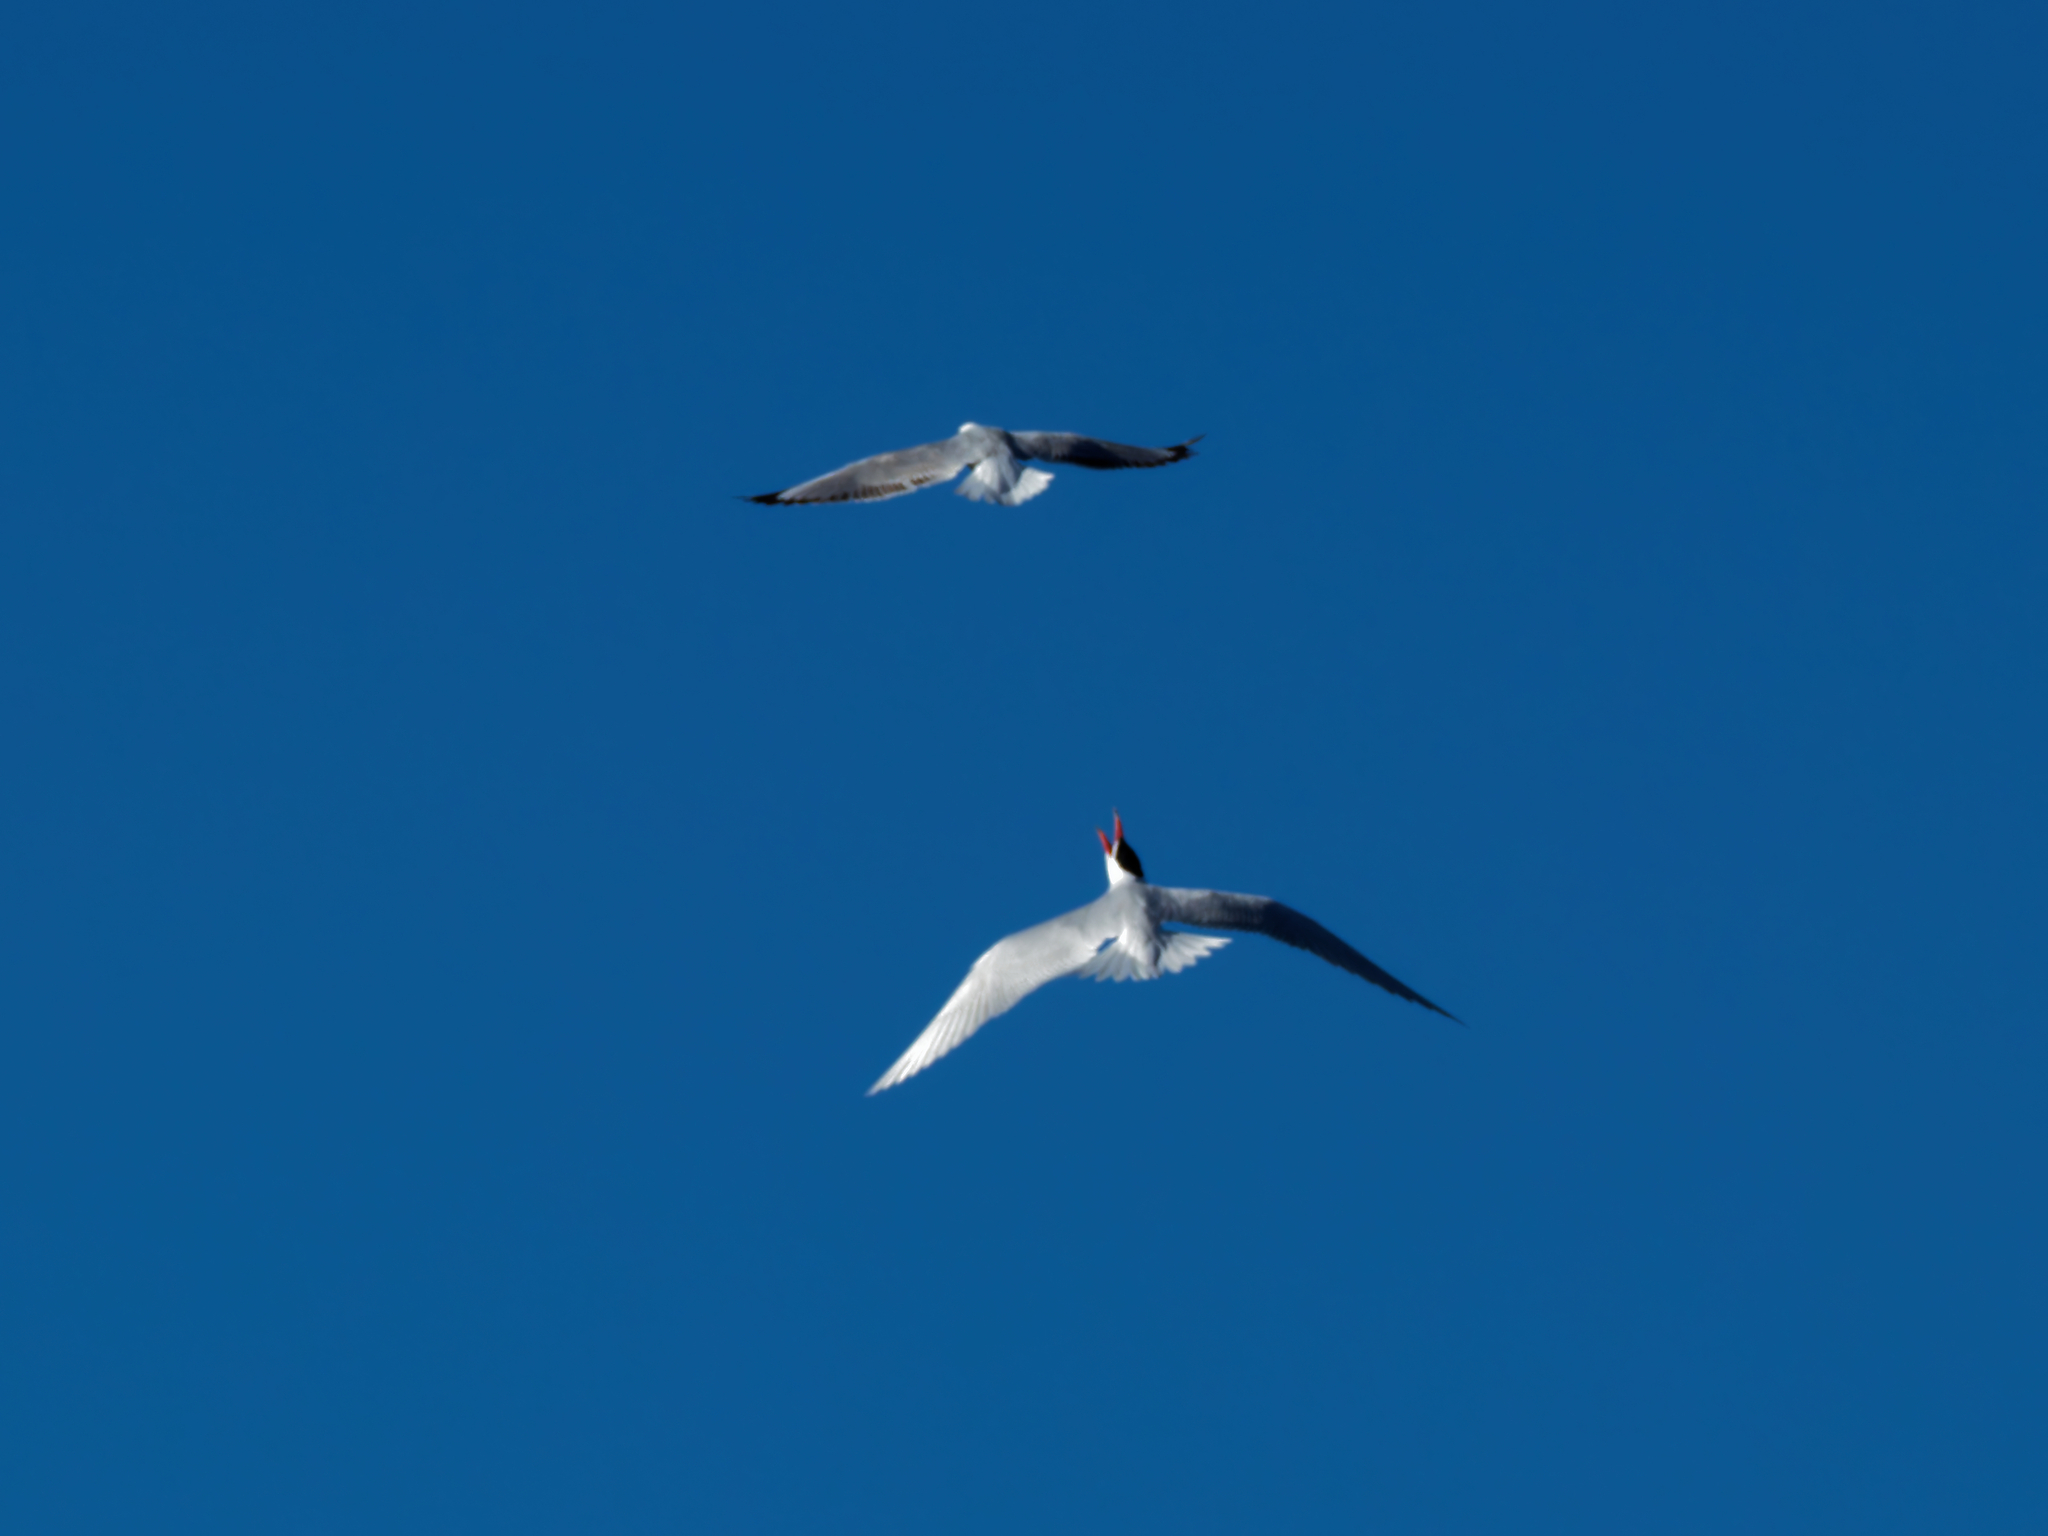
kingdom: Animalia
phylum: Chordata
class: Aves
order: Charadriiformes
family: Laridae
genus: Hydroprogne
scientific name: Hydroprogne caspia
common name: Caspian tern
